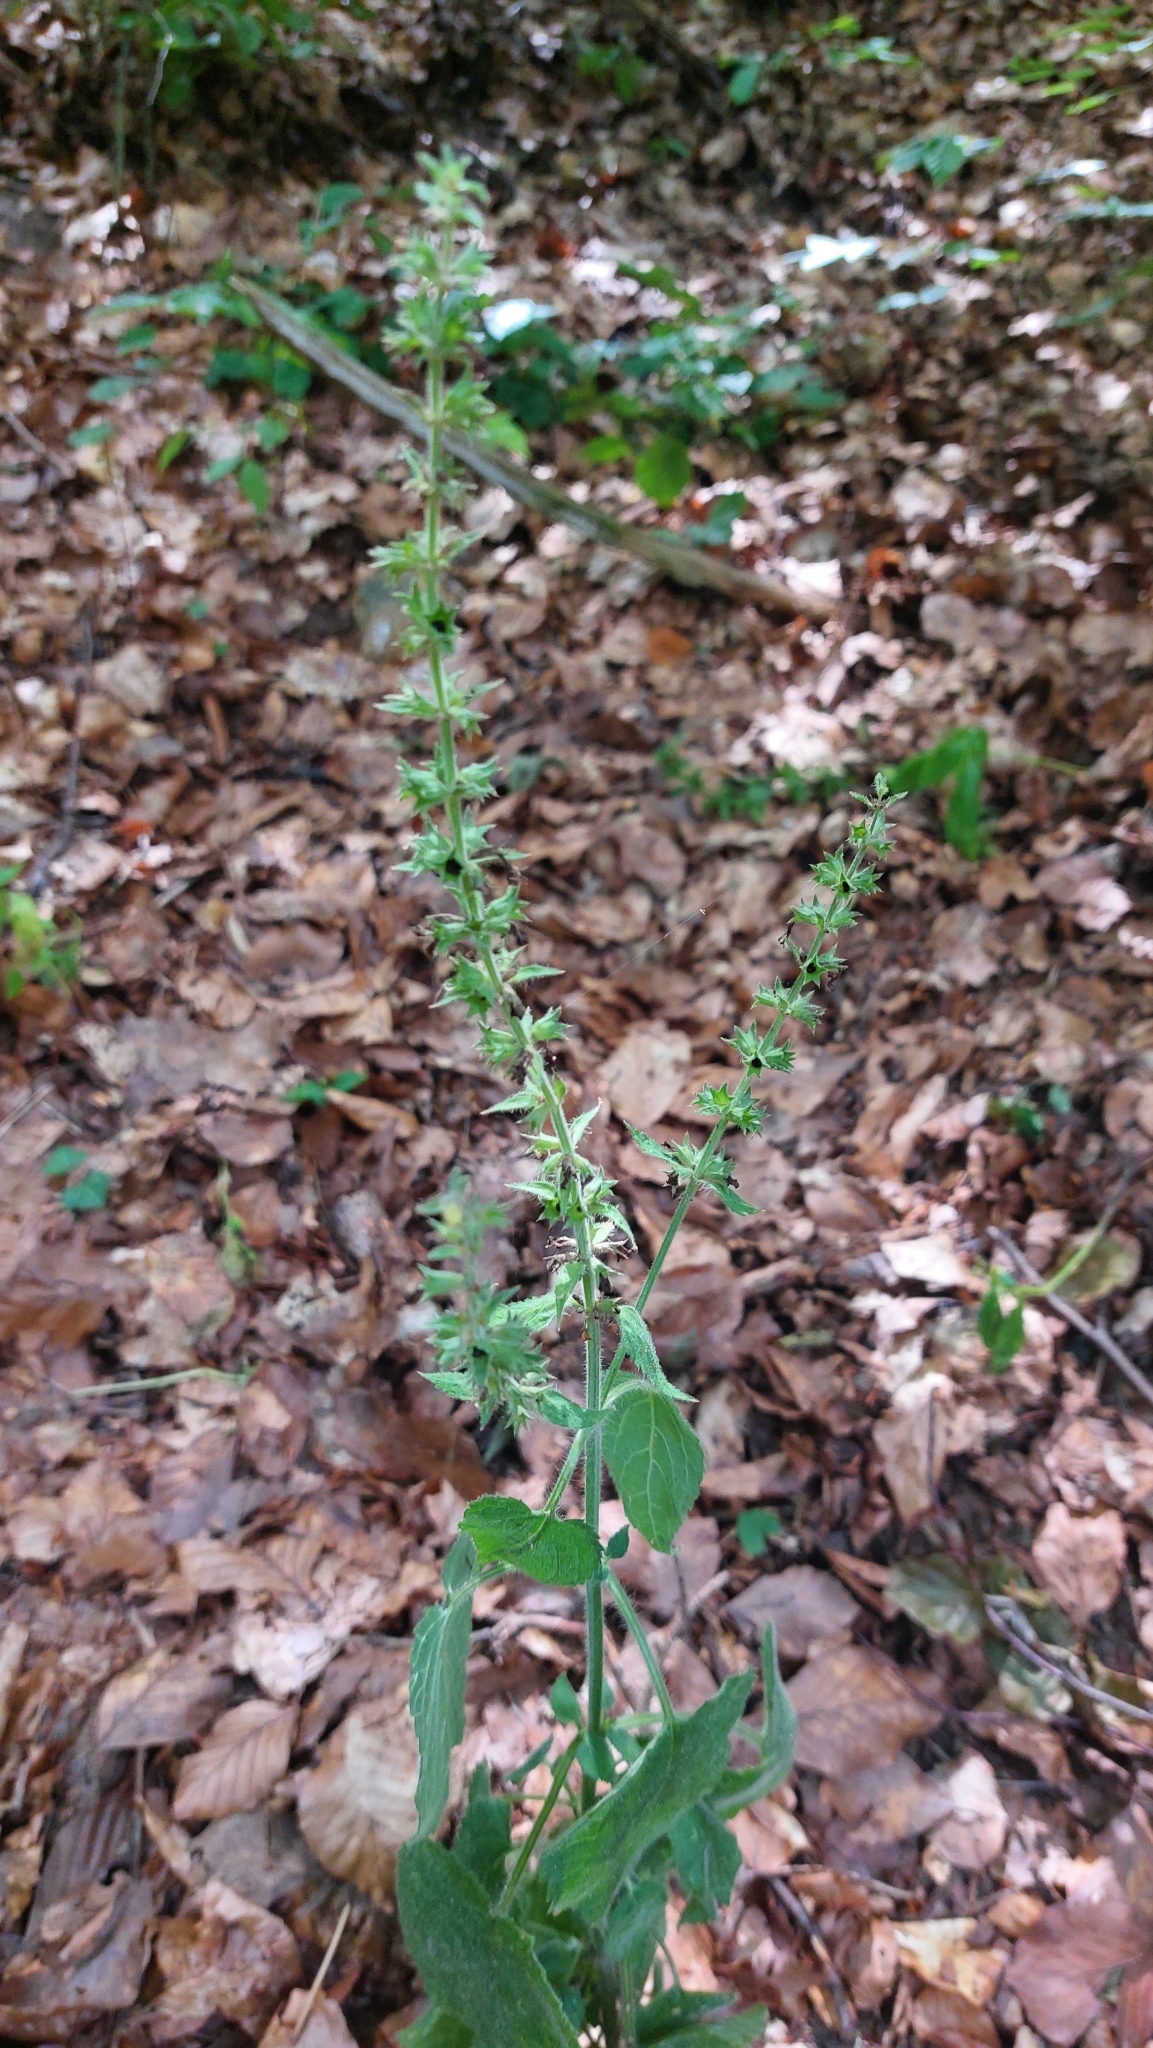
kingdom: Plantae
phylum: Tracheophyta
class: Magnoliopsida
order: Lamiales
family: Lamiaceae
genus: Stachys
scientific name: Stachys sylvatica
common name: Hedge woundwort
